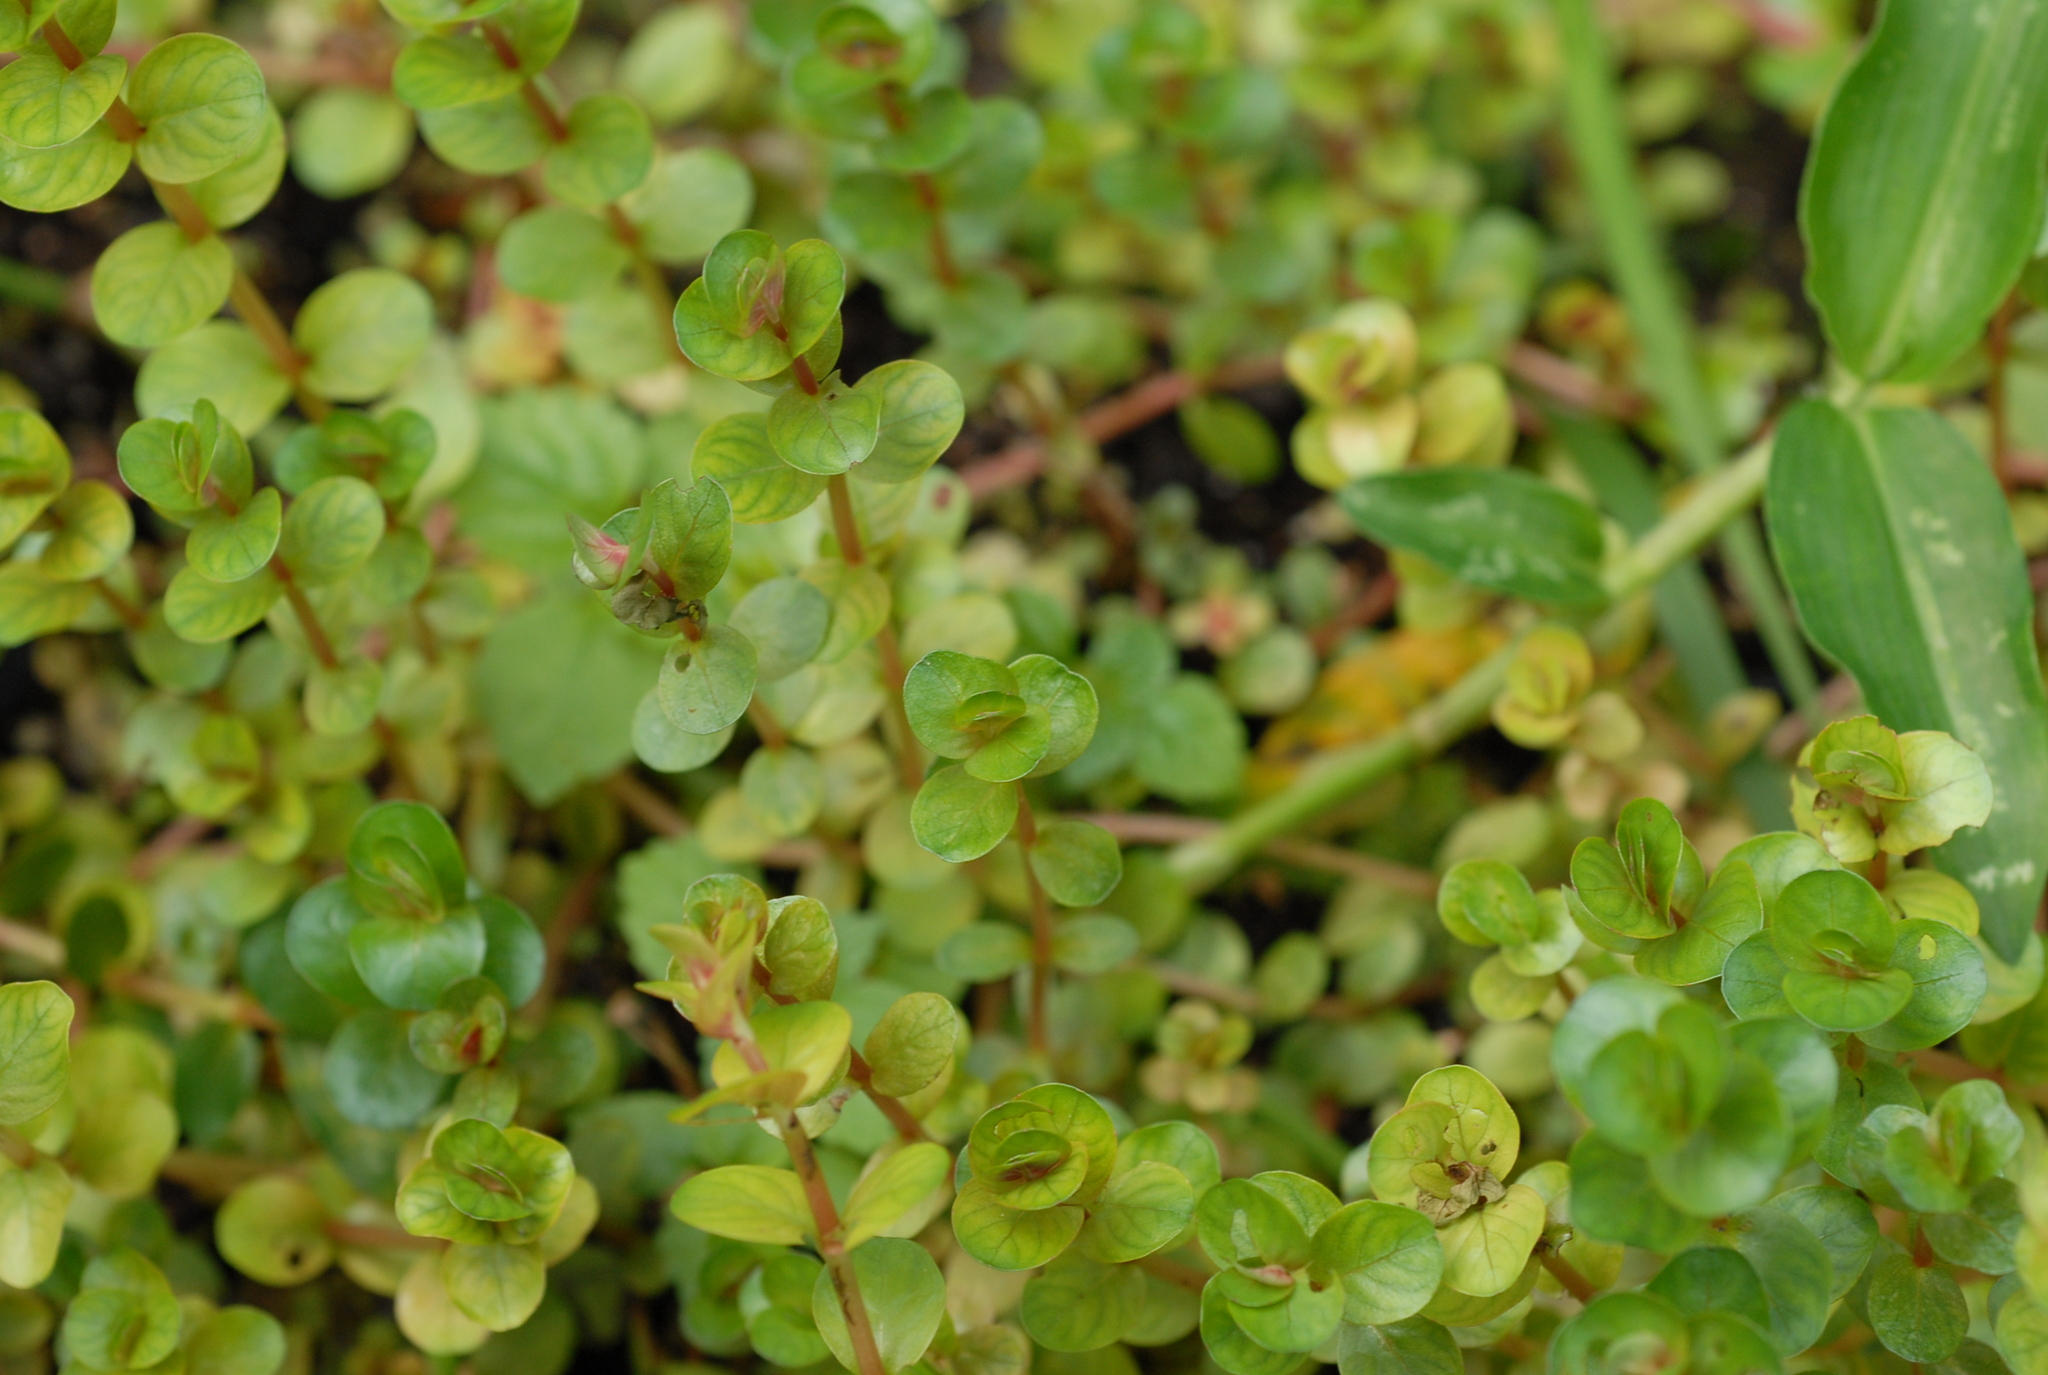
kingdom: Plantae
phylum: Tracheophyta
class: Magnoliopsida
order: Myrtales
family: Lythraceae
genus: Rotala
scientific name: Rotala rotundifolia
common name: Roundleaf toothcup
